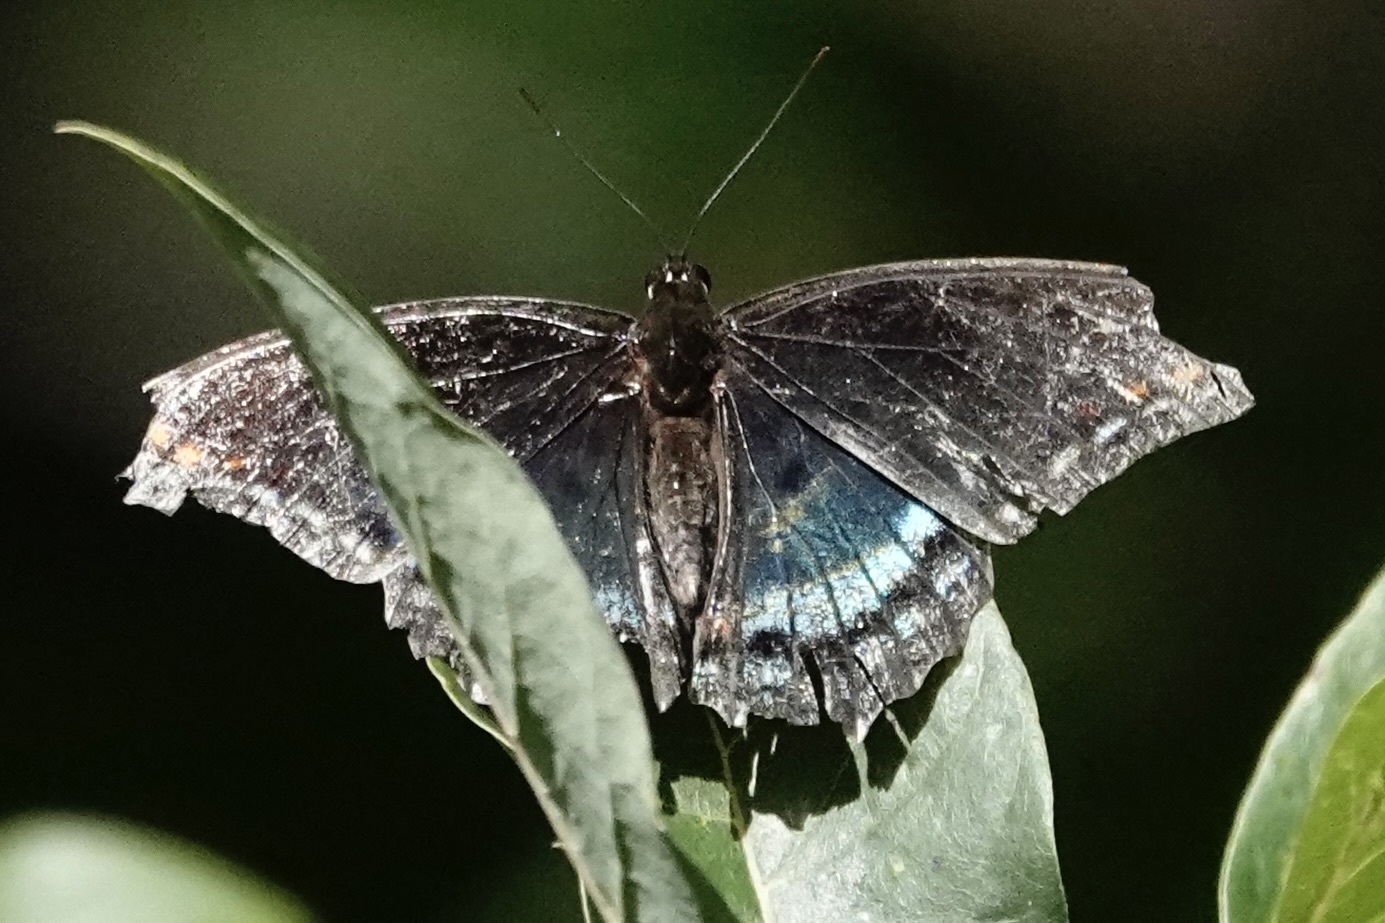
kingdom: Animalia
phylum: Arthropoda
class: Insecta
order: Lepidoptera
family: Nymphalidae
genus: Limenitis
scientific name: Limenitis astyanax
